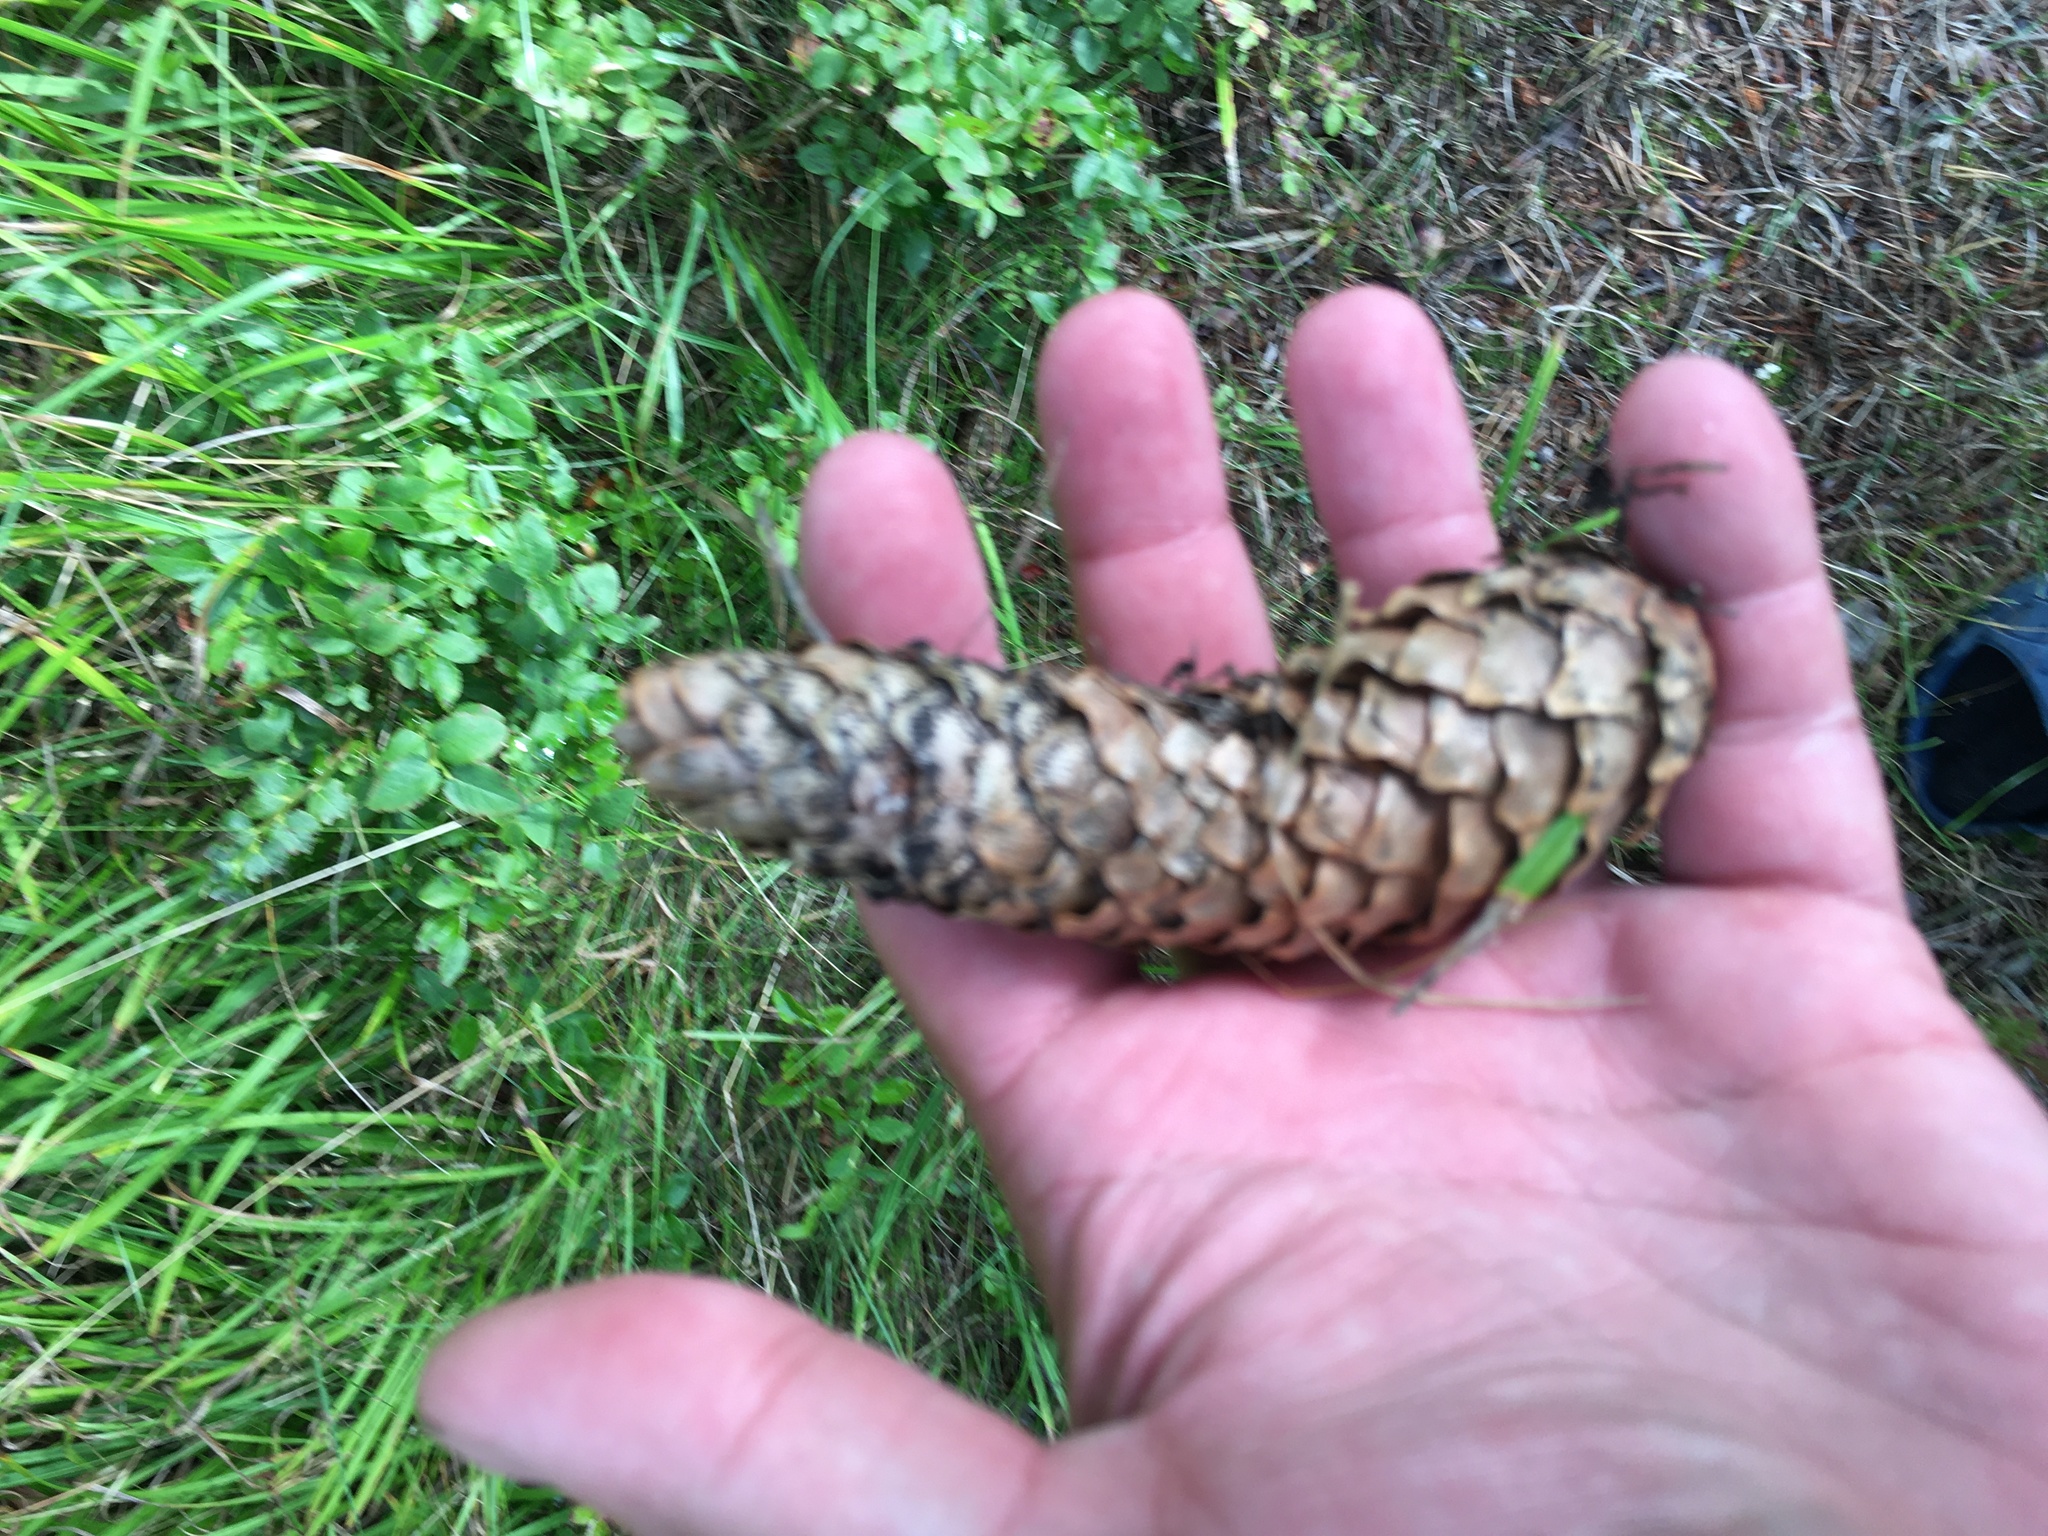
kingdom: Plantae
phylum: Tracheophyta
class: Pinopsida
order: Pinales
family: Pinaceae
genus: Picea
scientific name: Picea abies
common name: Norway spruce
